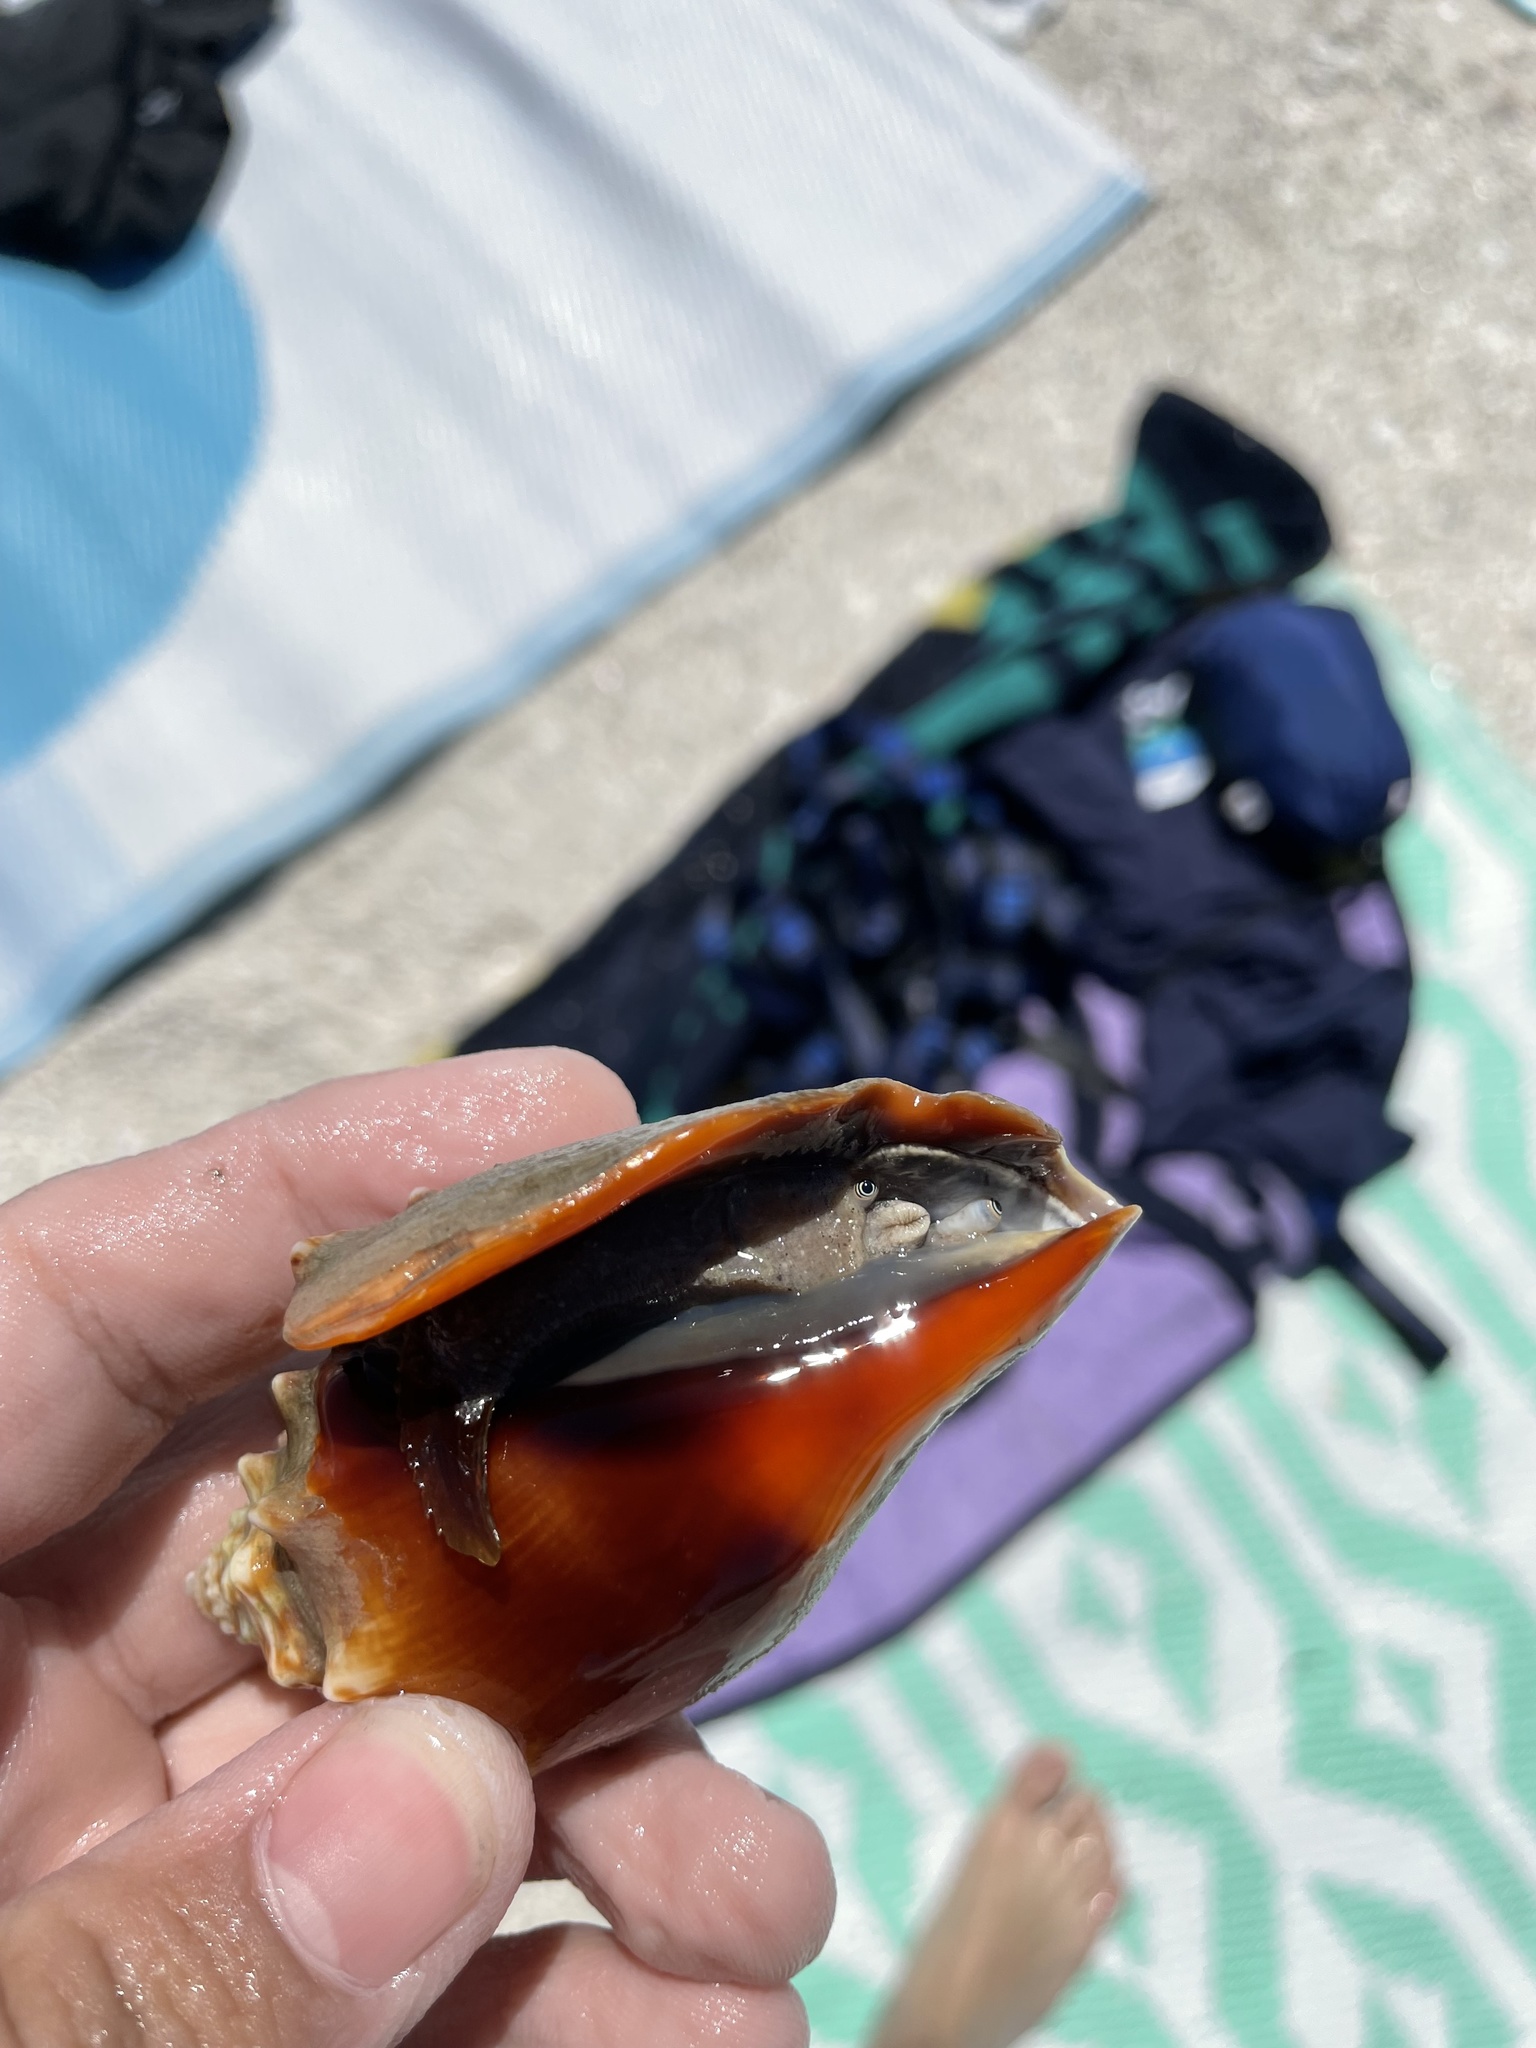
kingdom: Animalia
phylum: Mollusca
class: Gastropoda
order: Littorinimorpha
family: Strombidae
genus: Strombus
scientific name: Strombus alatus
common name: Florida fighting conch
